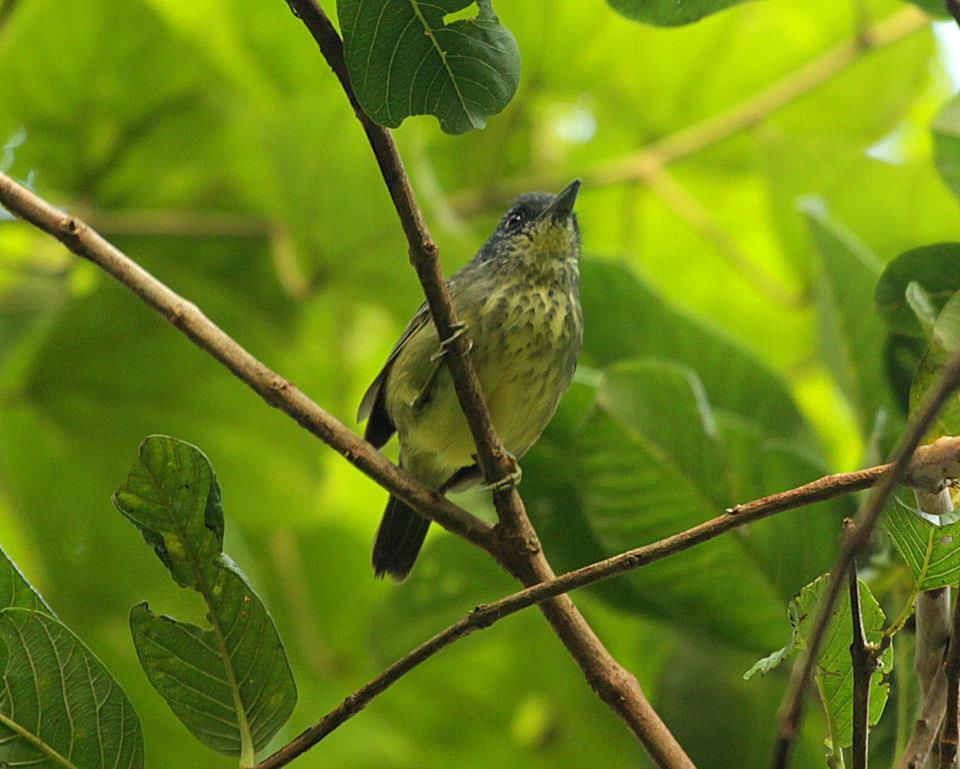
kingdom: Animalia
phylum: Chordata
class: Aves
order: Passeriformes
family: Thamnophilidae
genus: Dysithamnus
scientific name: Dysithamnus stictothorax
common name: Spot-breasted antvireo
